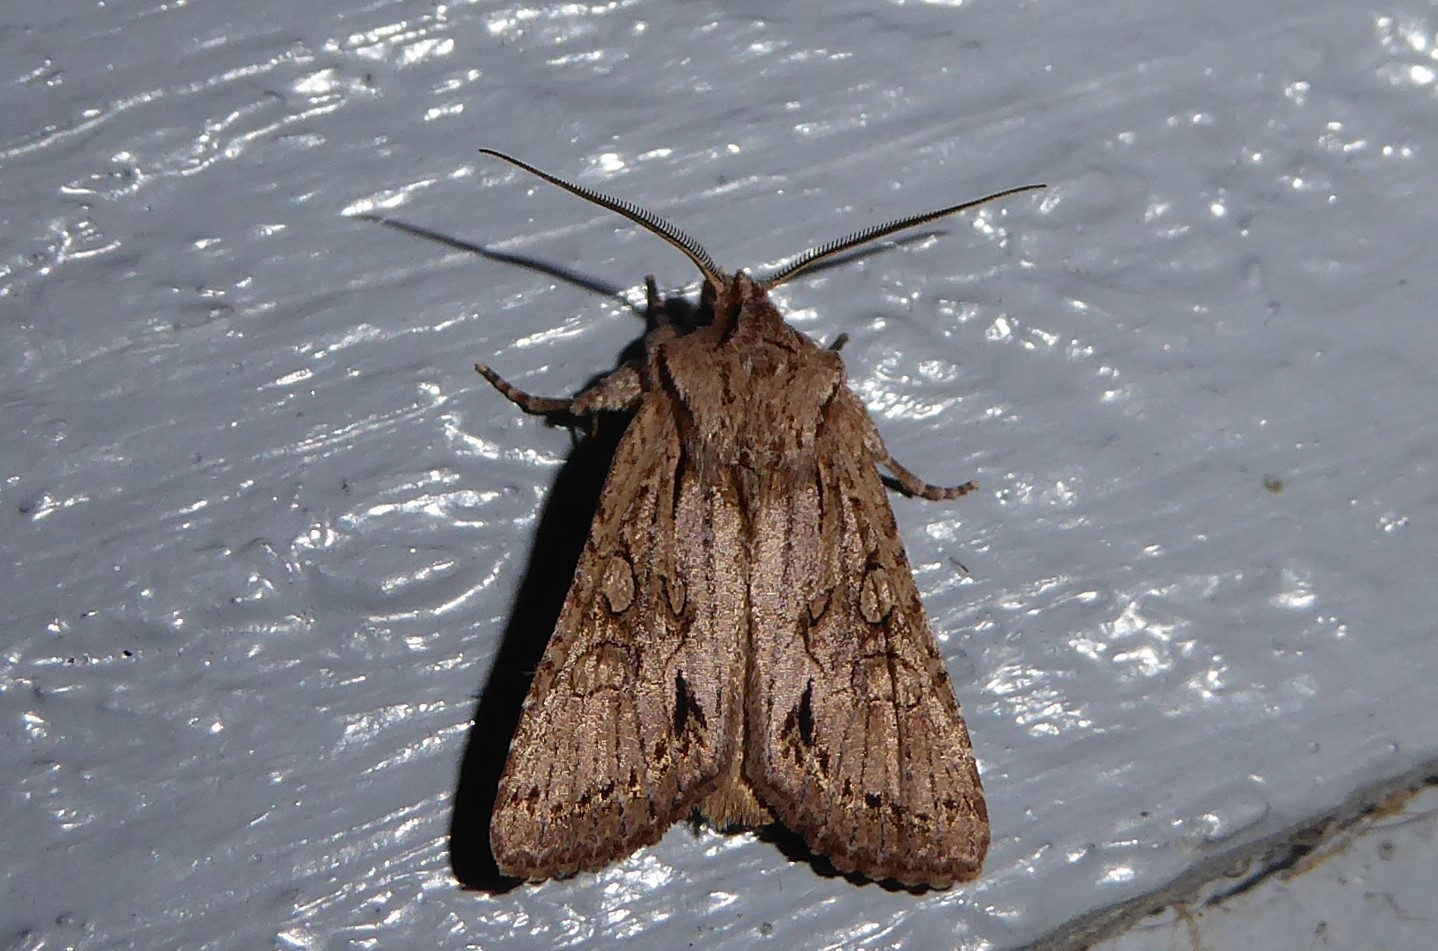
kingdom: Animalia
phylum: Arthropoda
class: Insecta
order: Lepidoptera
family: Noctuidae
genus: Ichneutica
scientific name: Ichneutica
